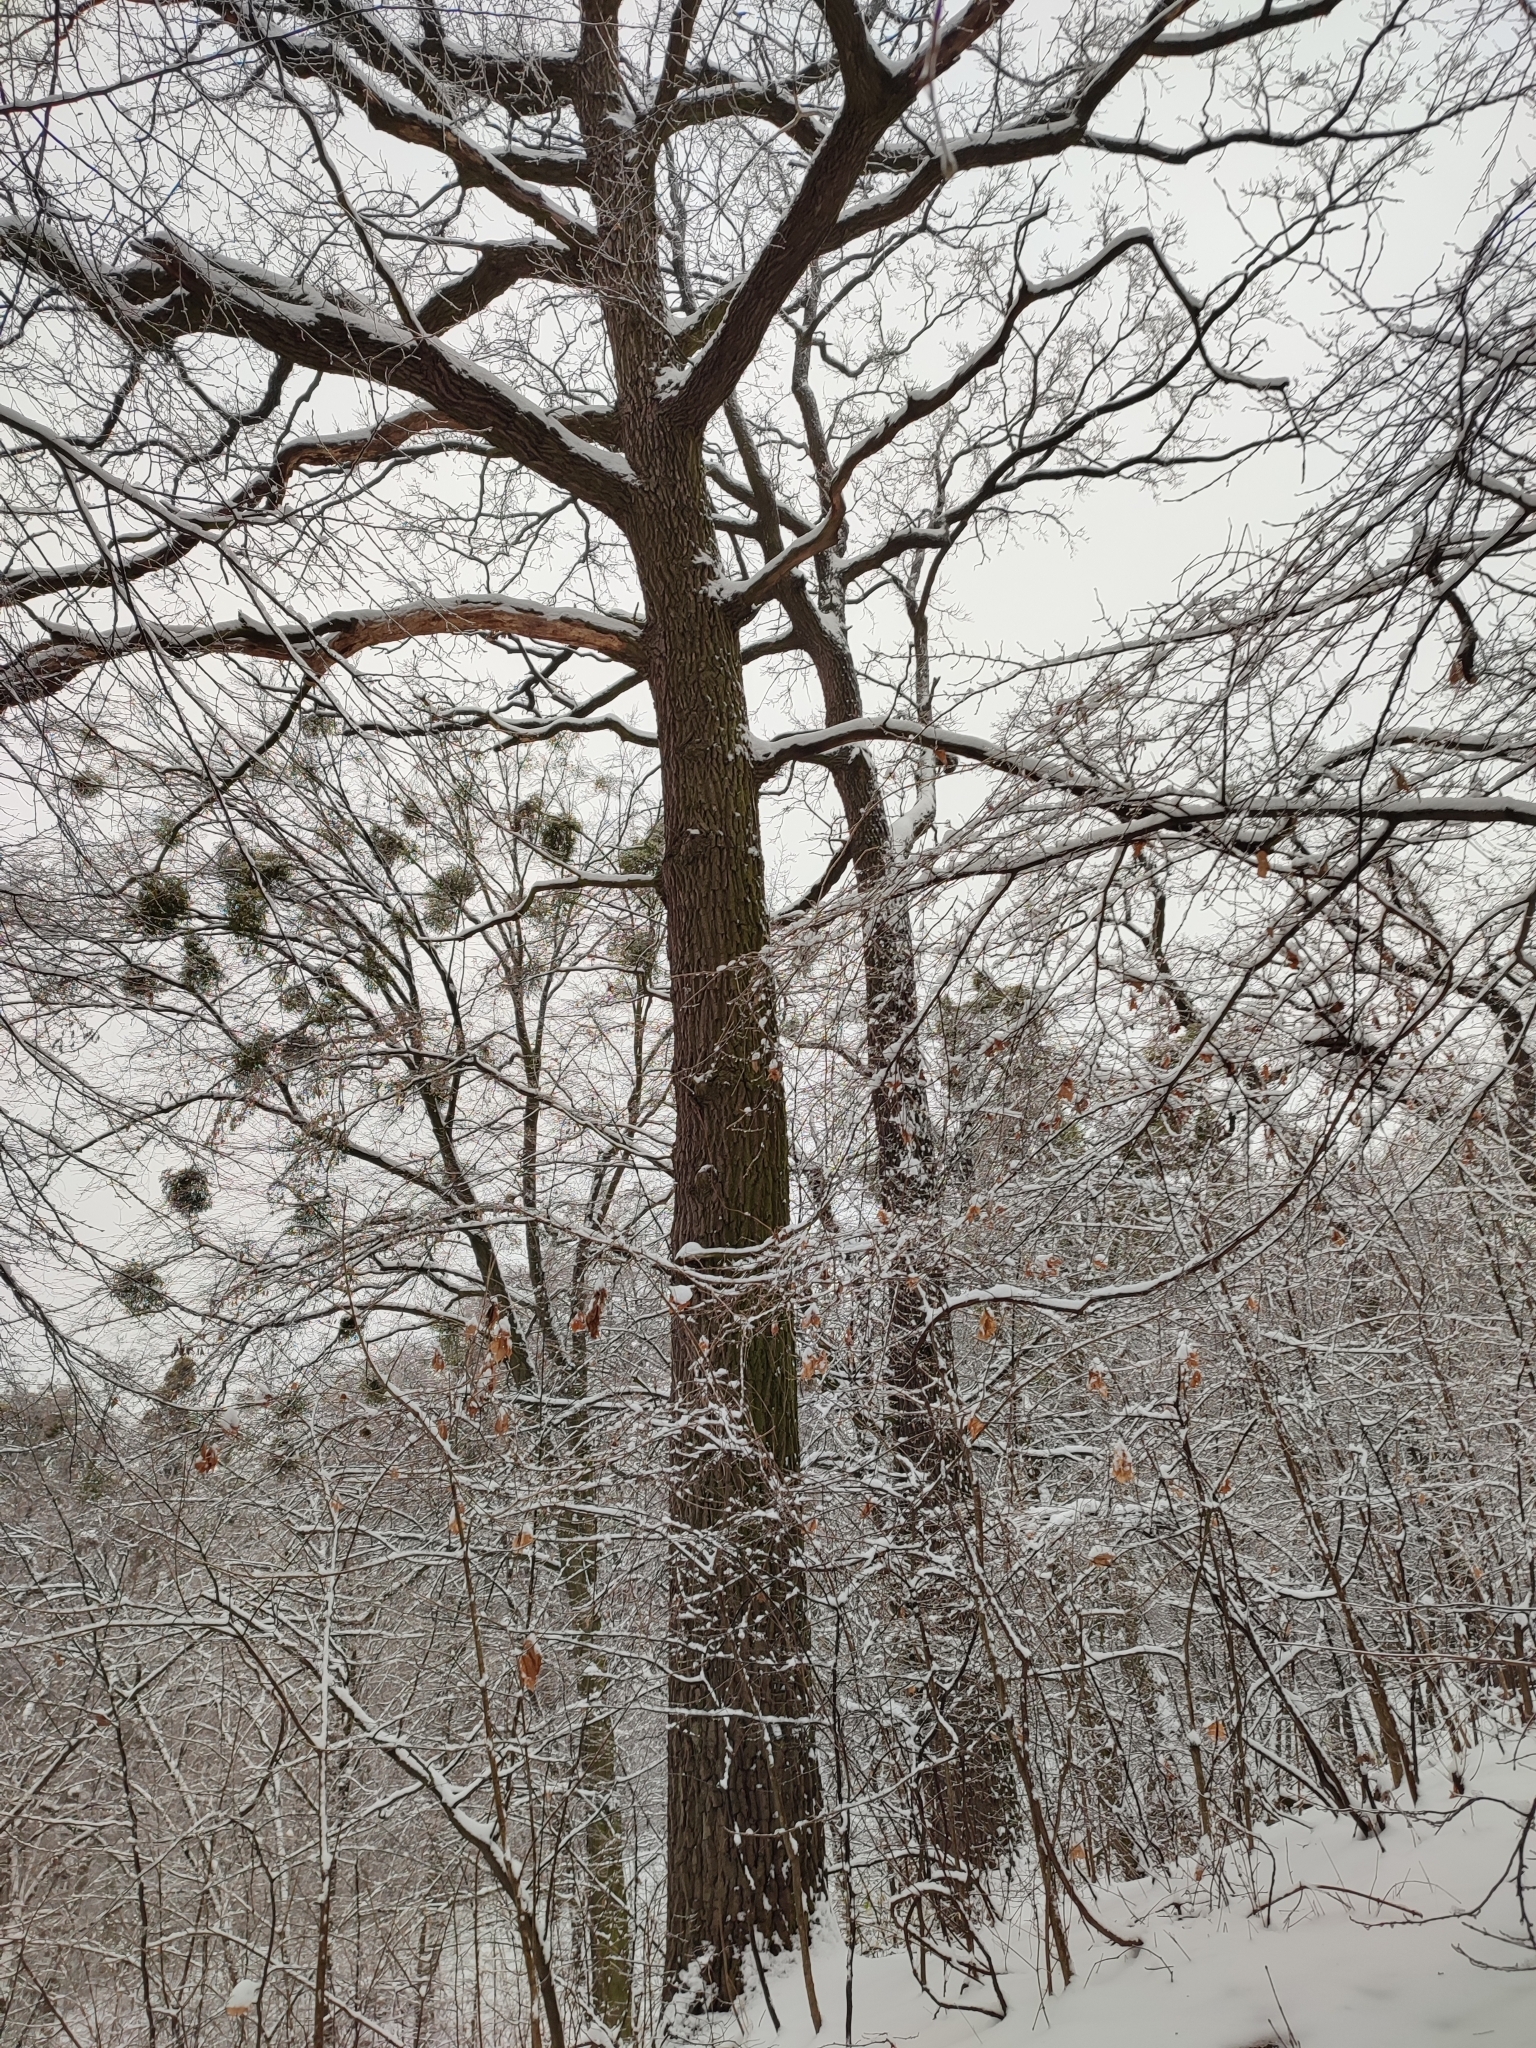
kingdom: Plantae
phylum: Tracheophyta
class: Magnoliopsida
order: Fagales
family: Fagaceae
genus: Quercus
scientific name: Quercus robur
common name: Pedunculate oak
